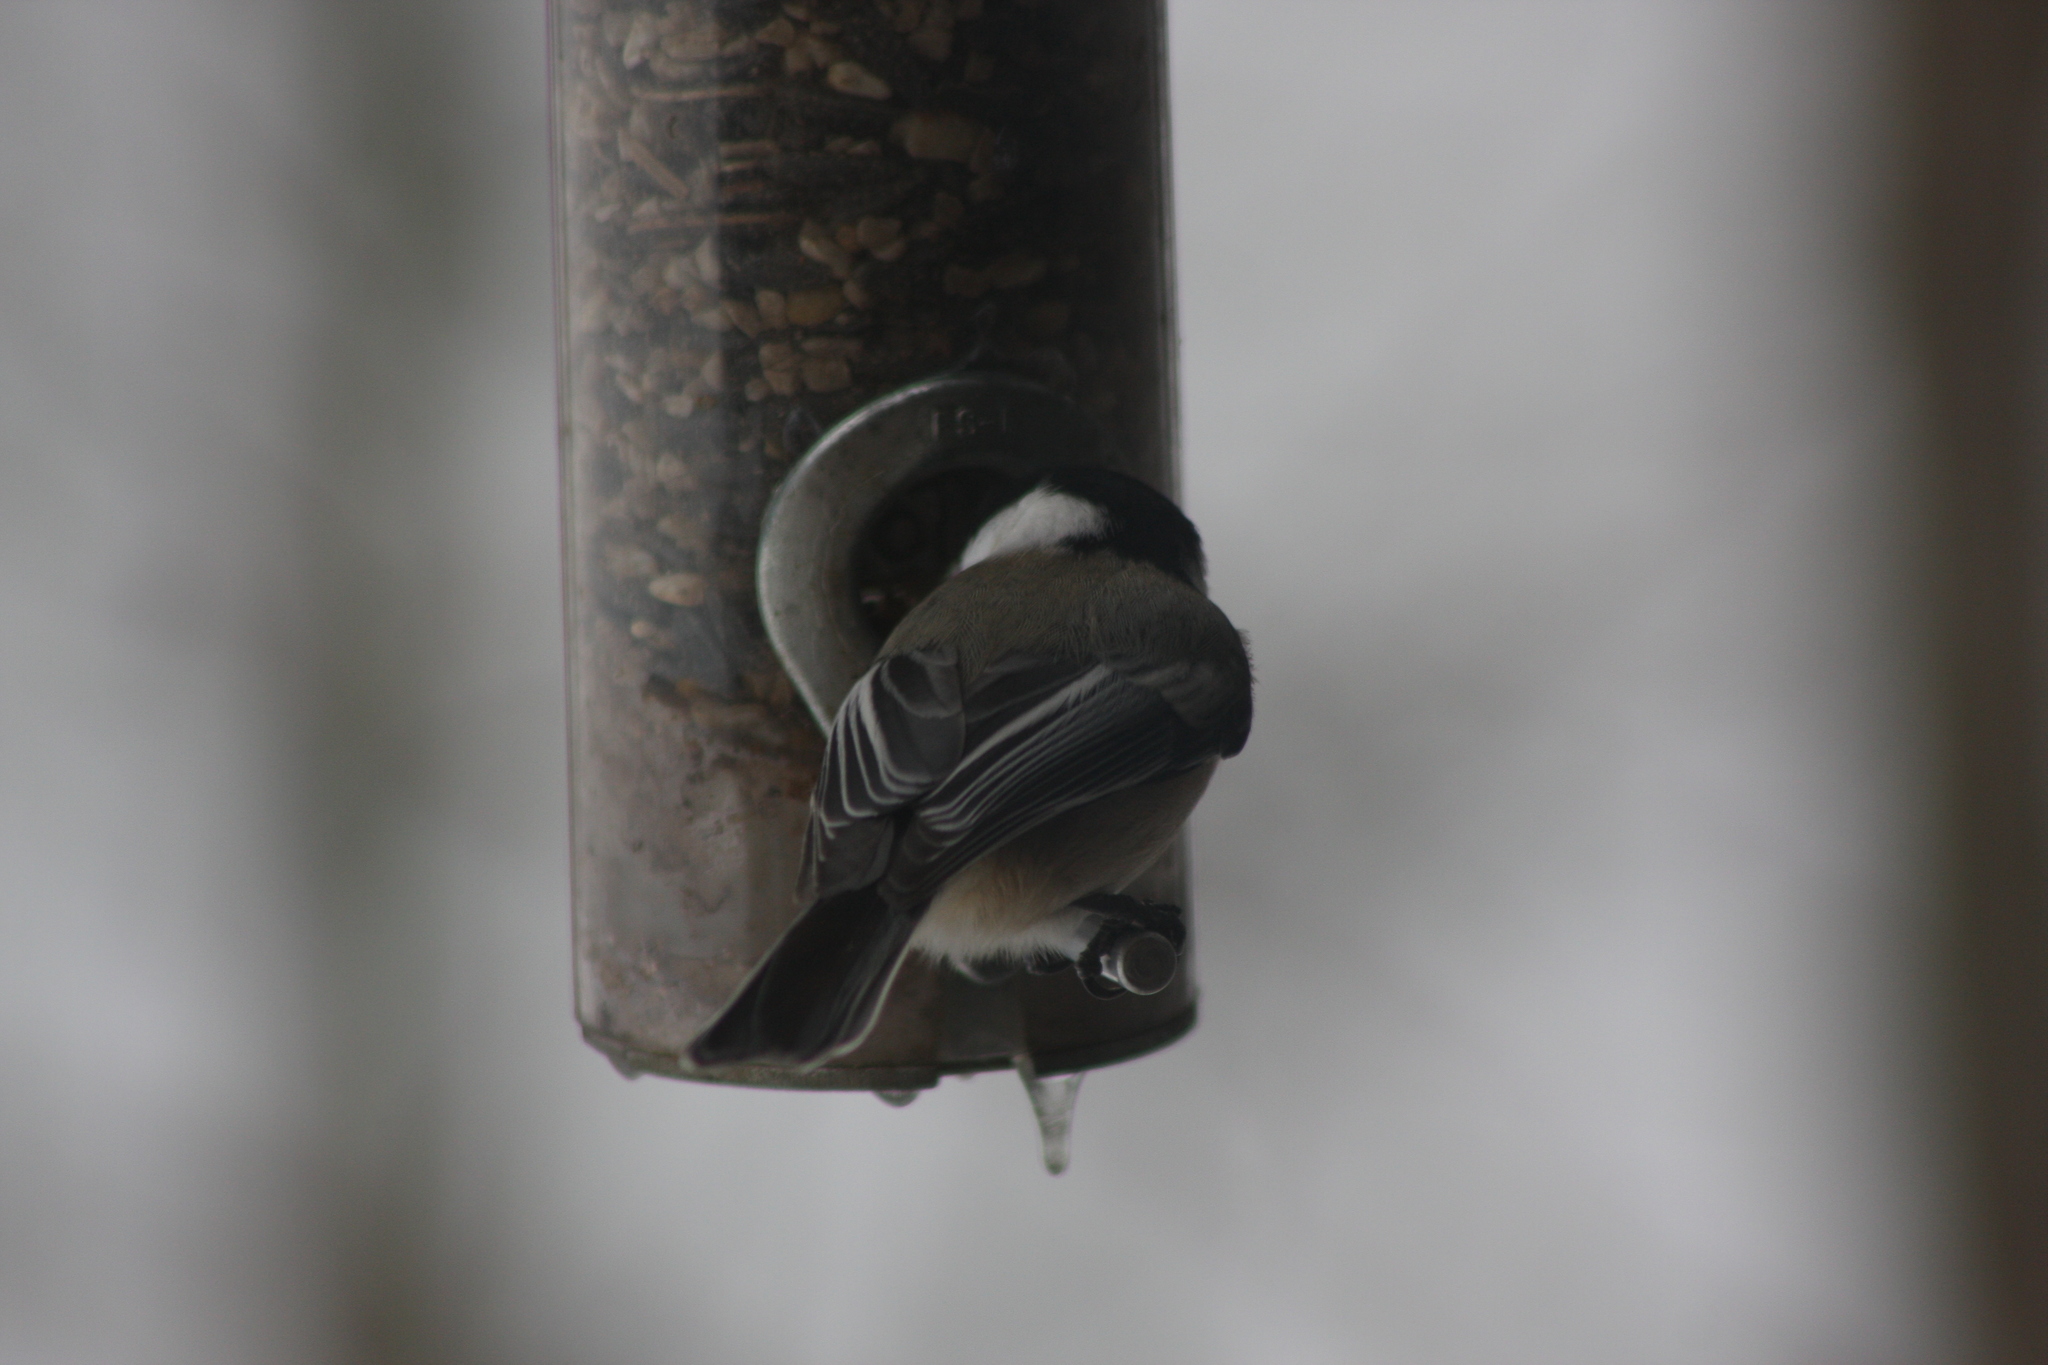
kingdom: Animalia
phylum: Chordata
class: Aves
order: Passeriformes
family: Paridae
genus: Poecile
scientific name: Poecile atricapillus
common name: Black-capped chickadee
